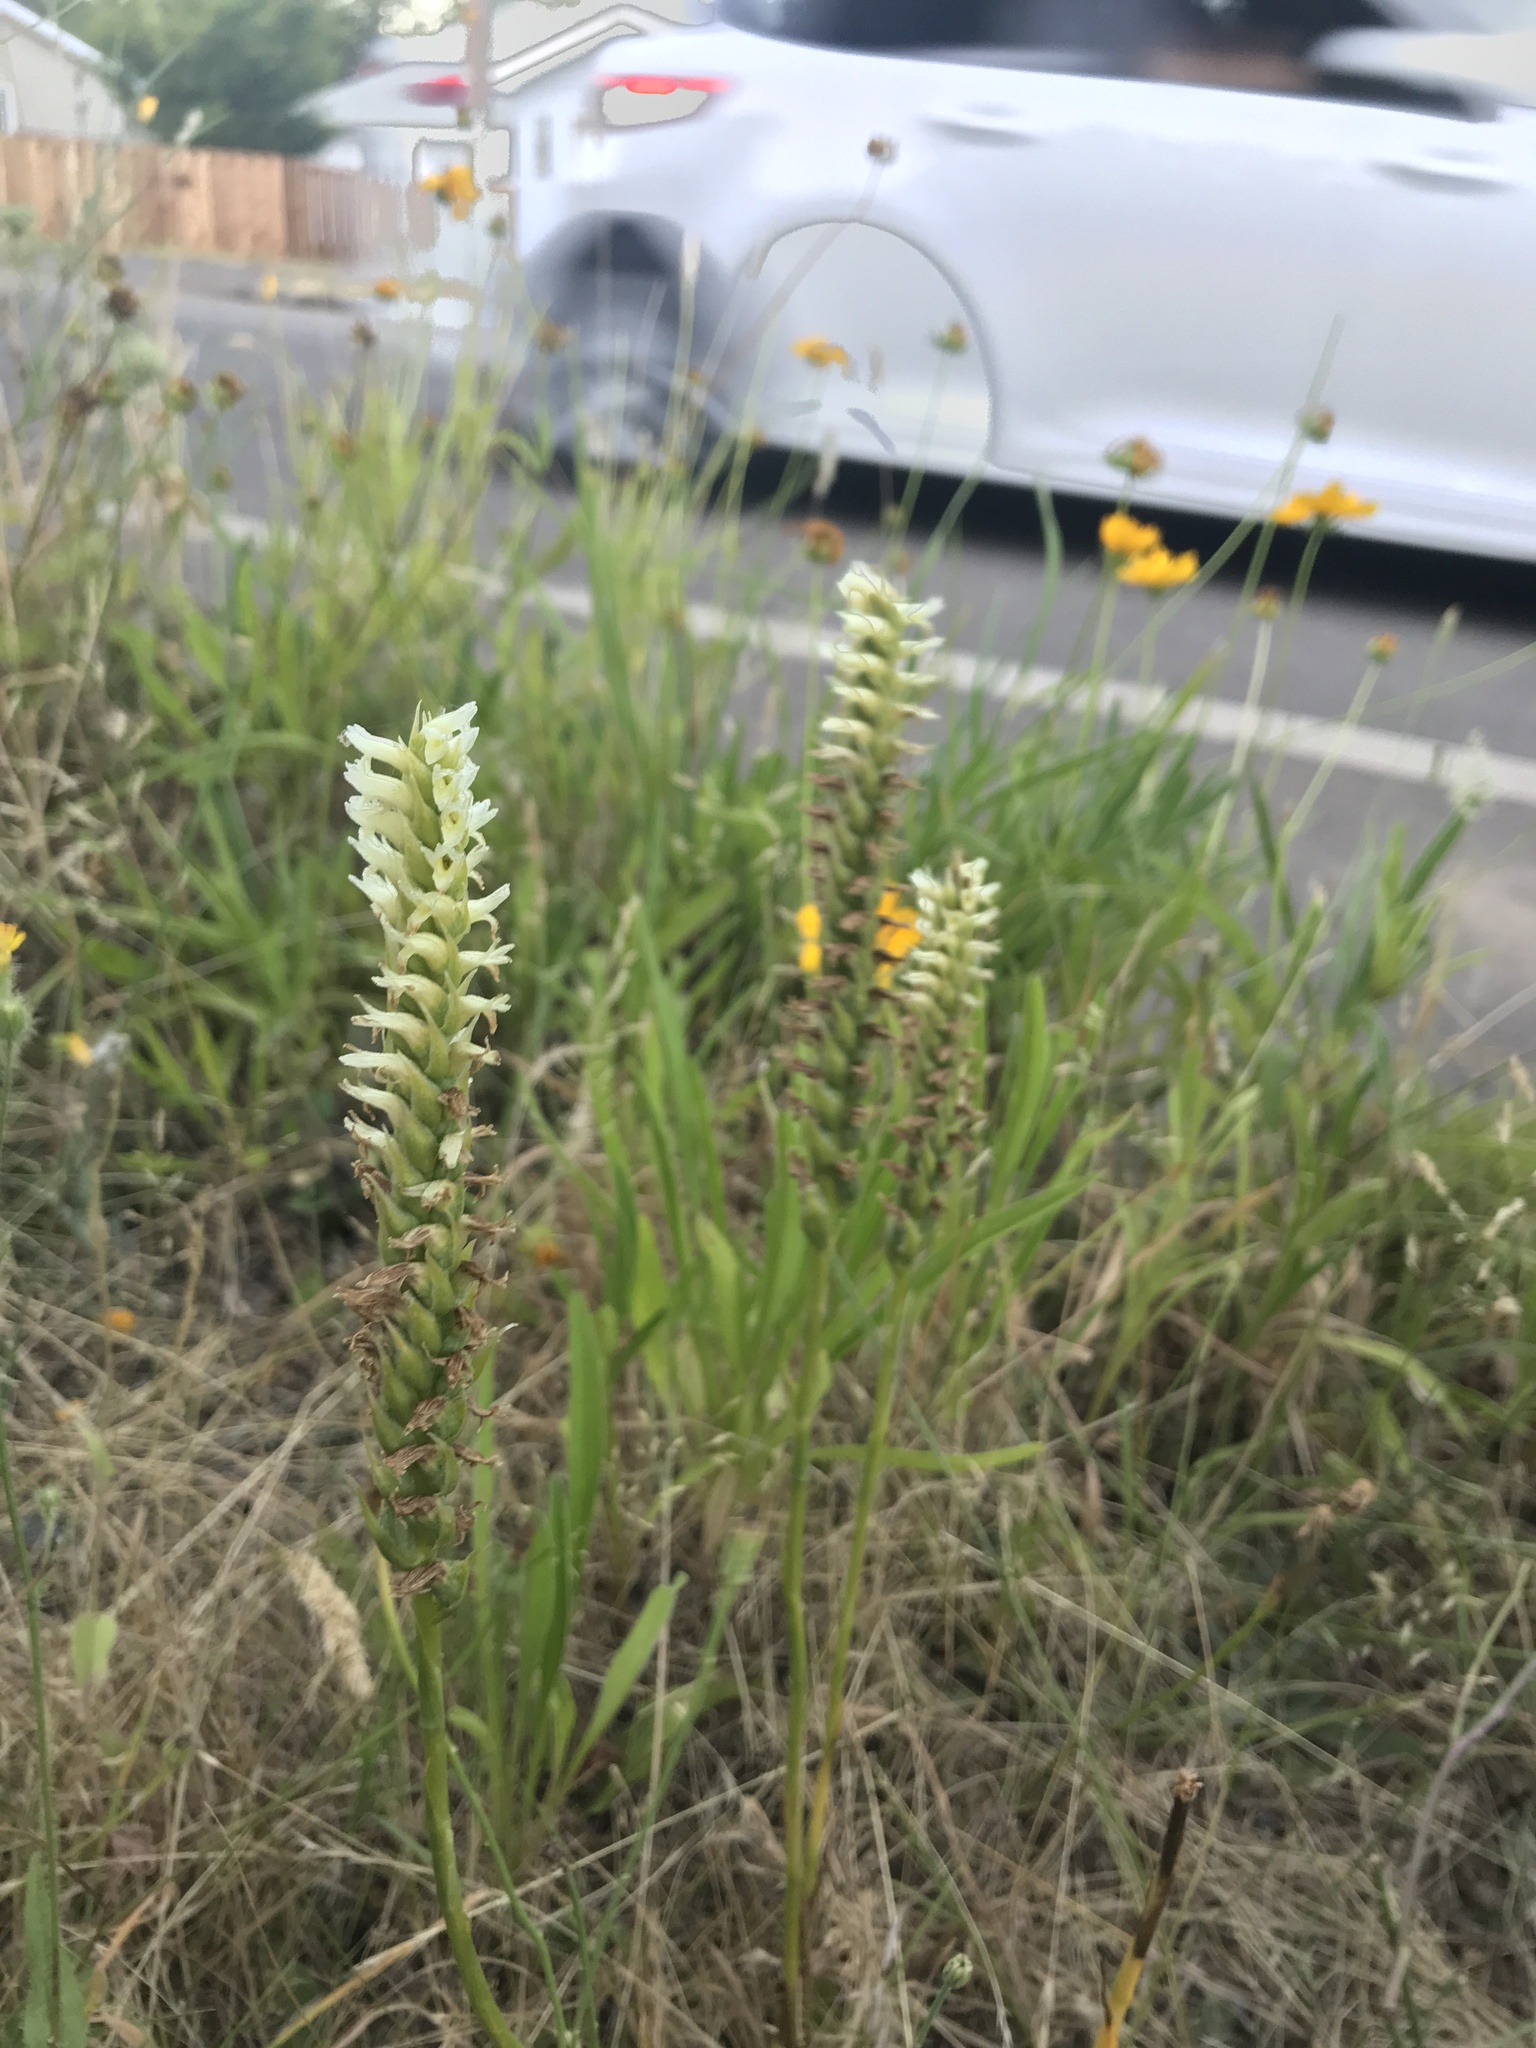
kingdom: Plantae
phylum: Tracheophyta
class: Liliopsida
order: Asparagales
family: Orchidaceae
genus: Spiranthes
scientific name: Spiranthes romanzoffiana
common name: Irish lady's-tresses
